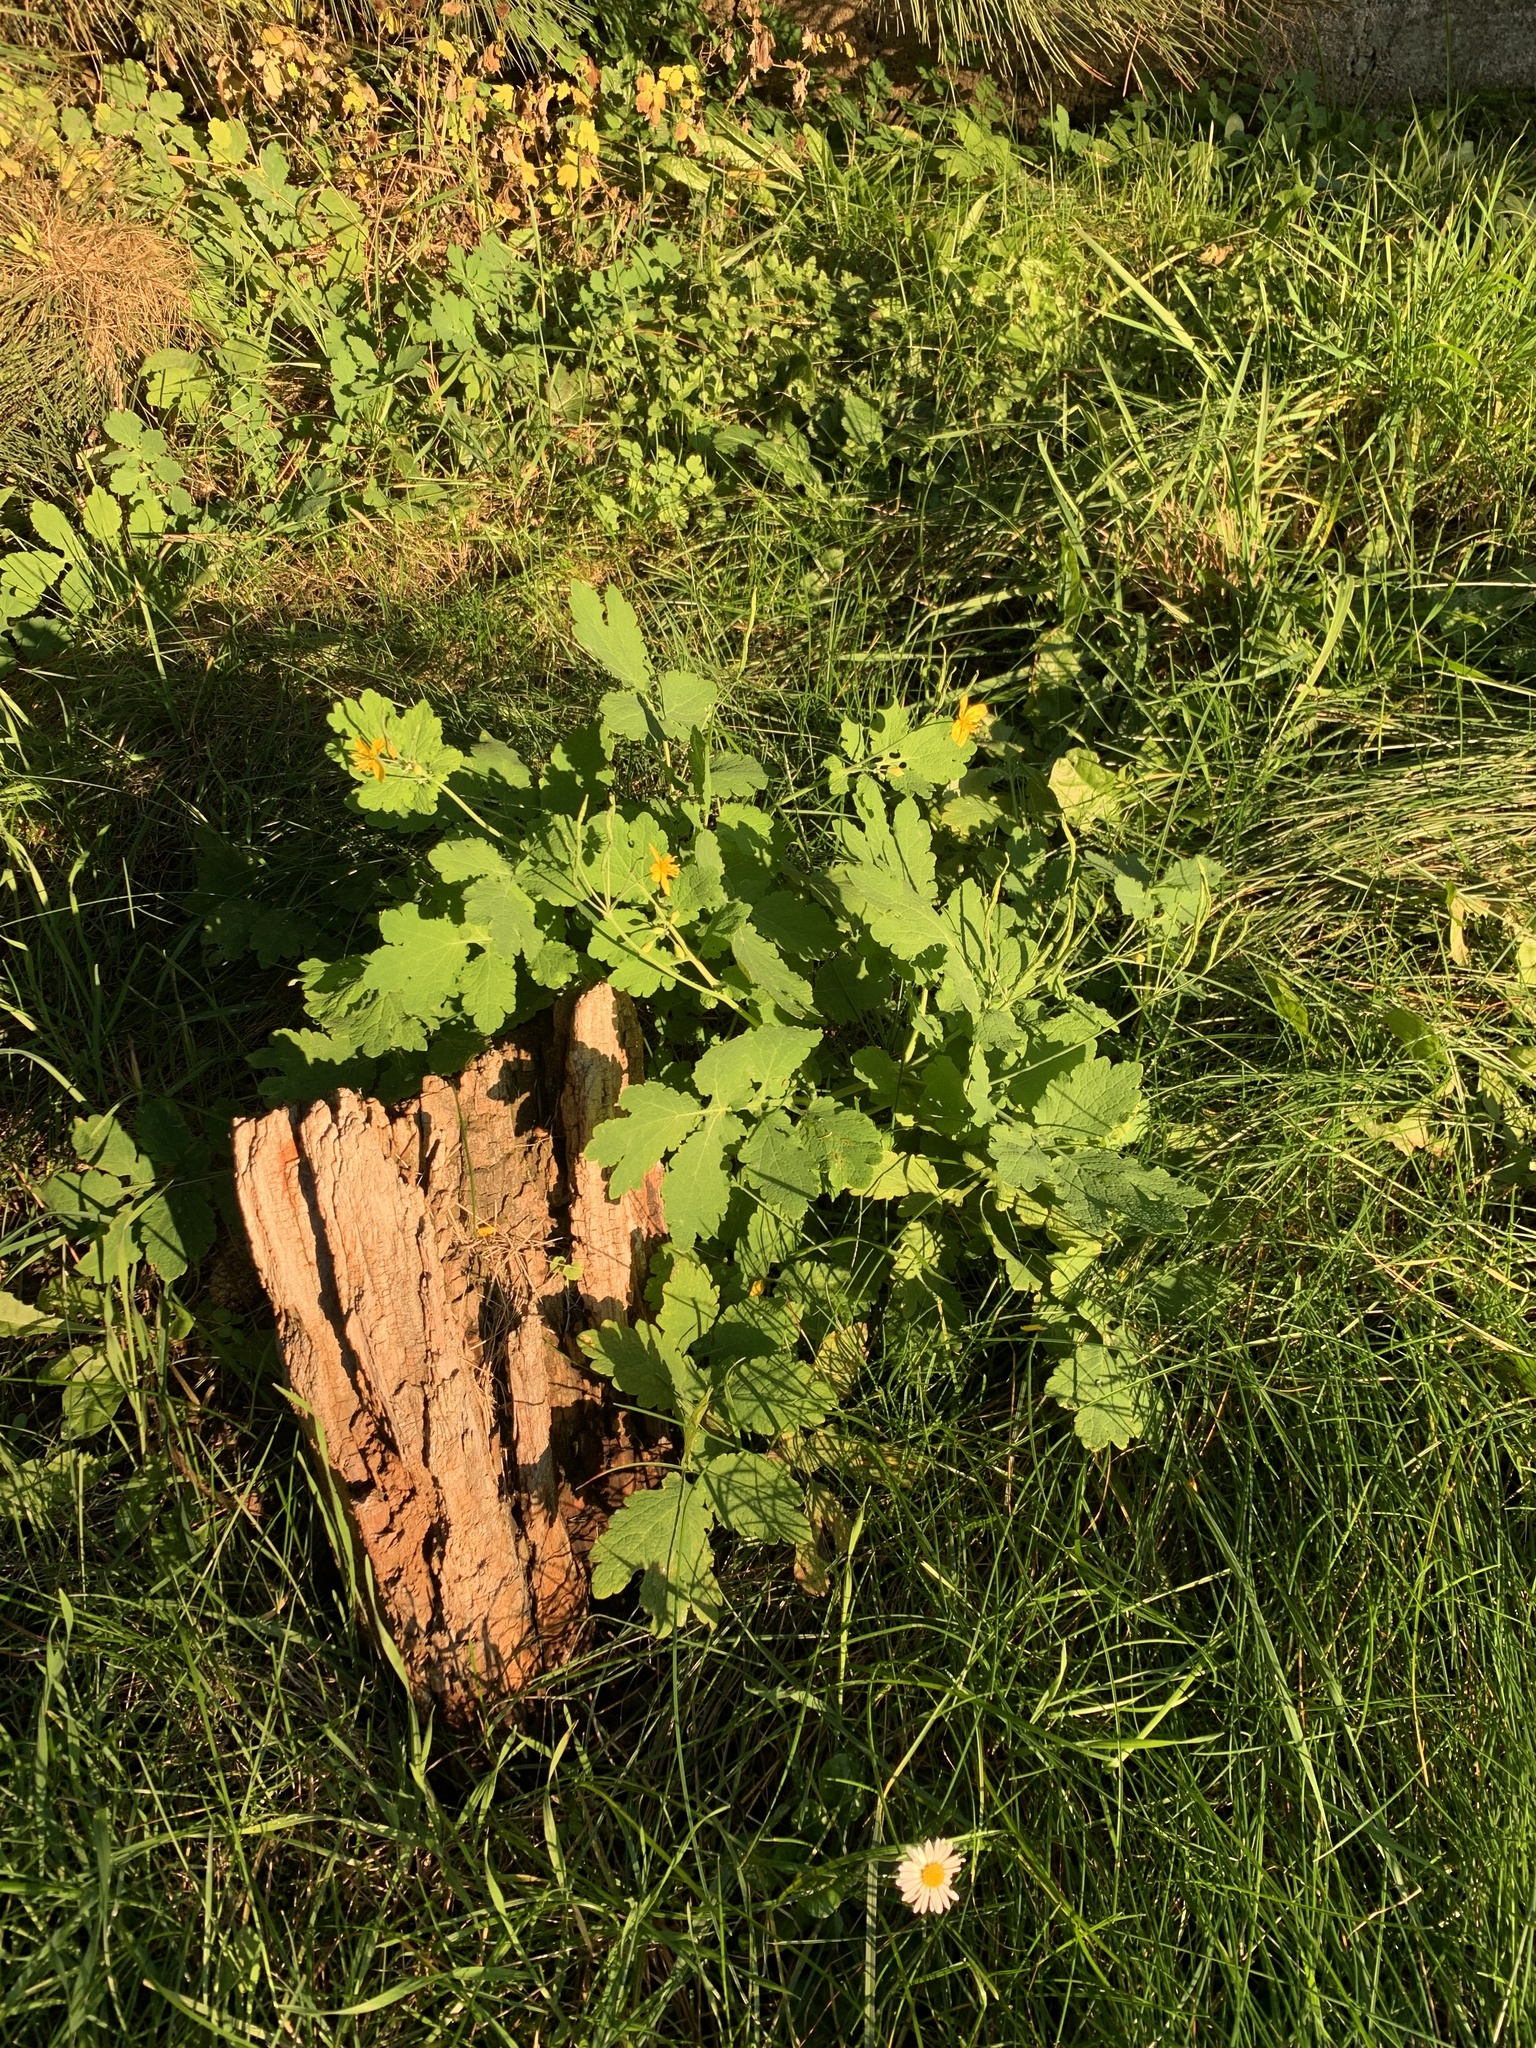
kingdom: Plantae
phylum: Tracheophyta
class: Magnoliopsida
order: Ranunculales
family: Papaveraceae
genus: Chelidonium
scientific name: Chelidonium majus
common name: Greater celandine
